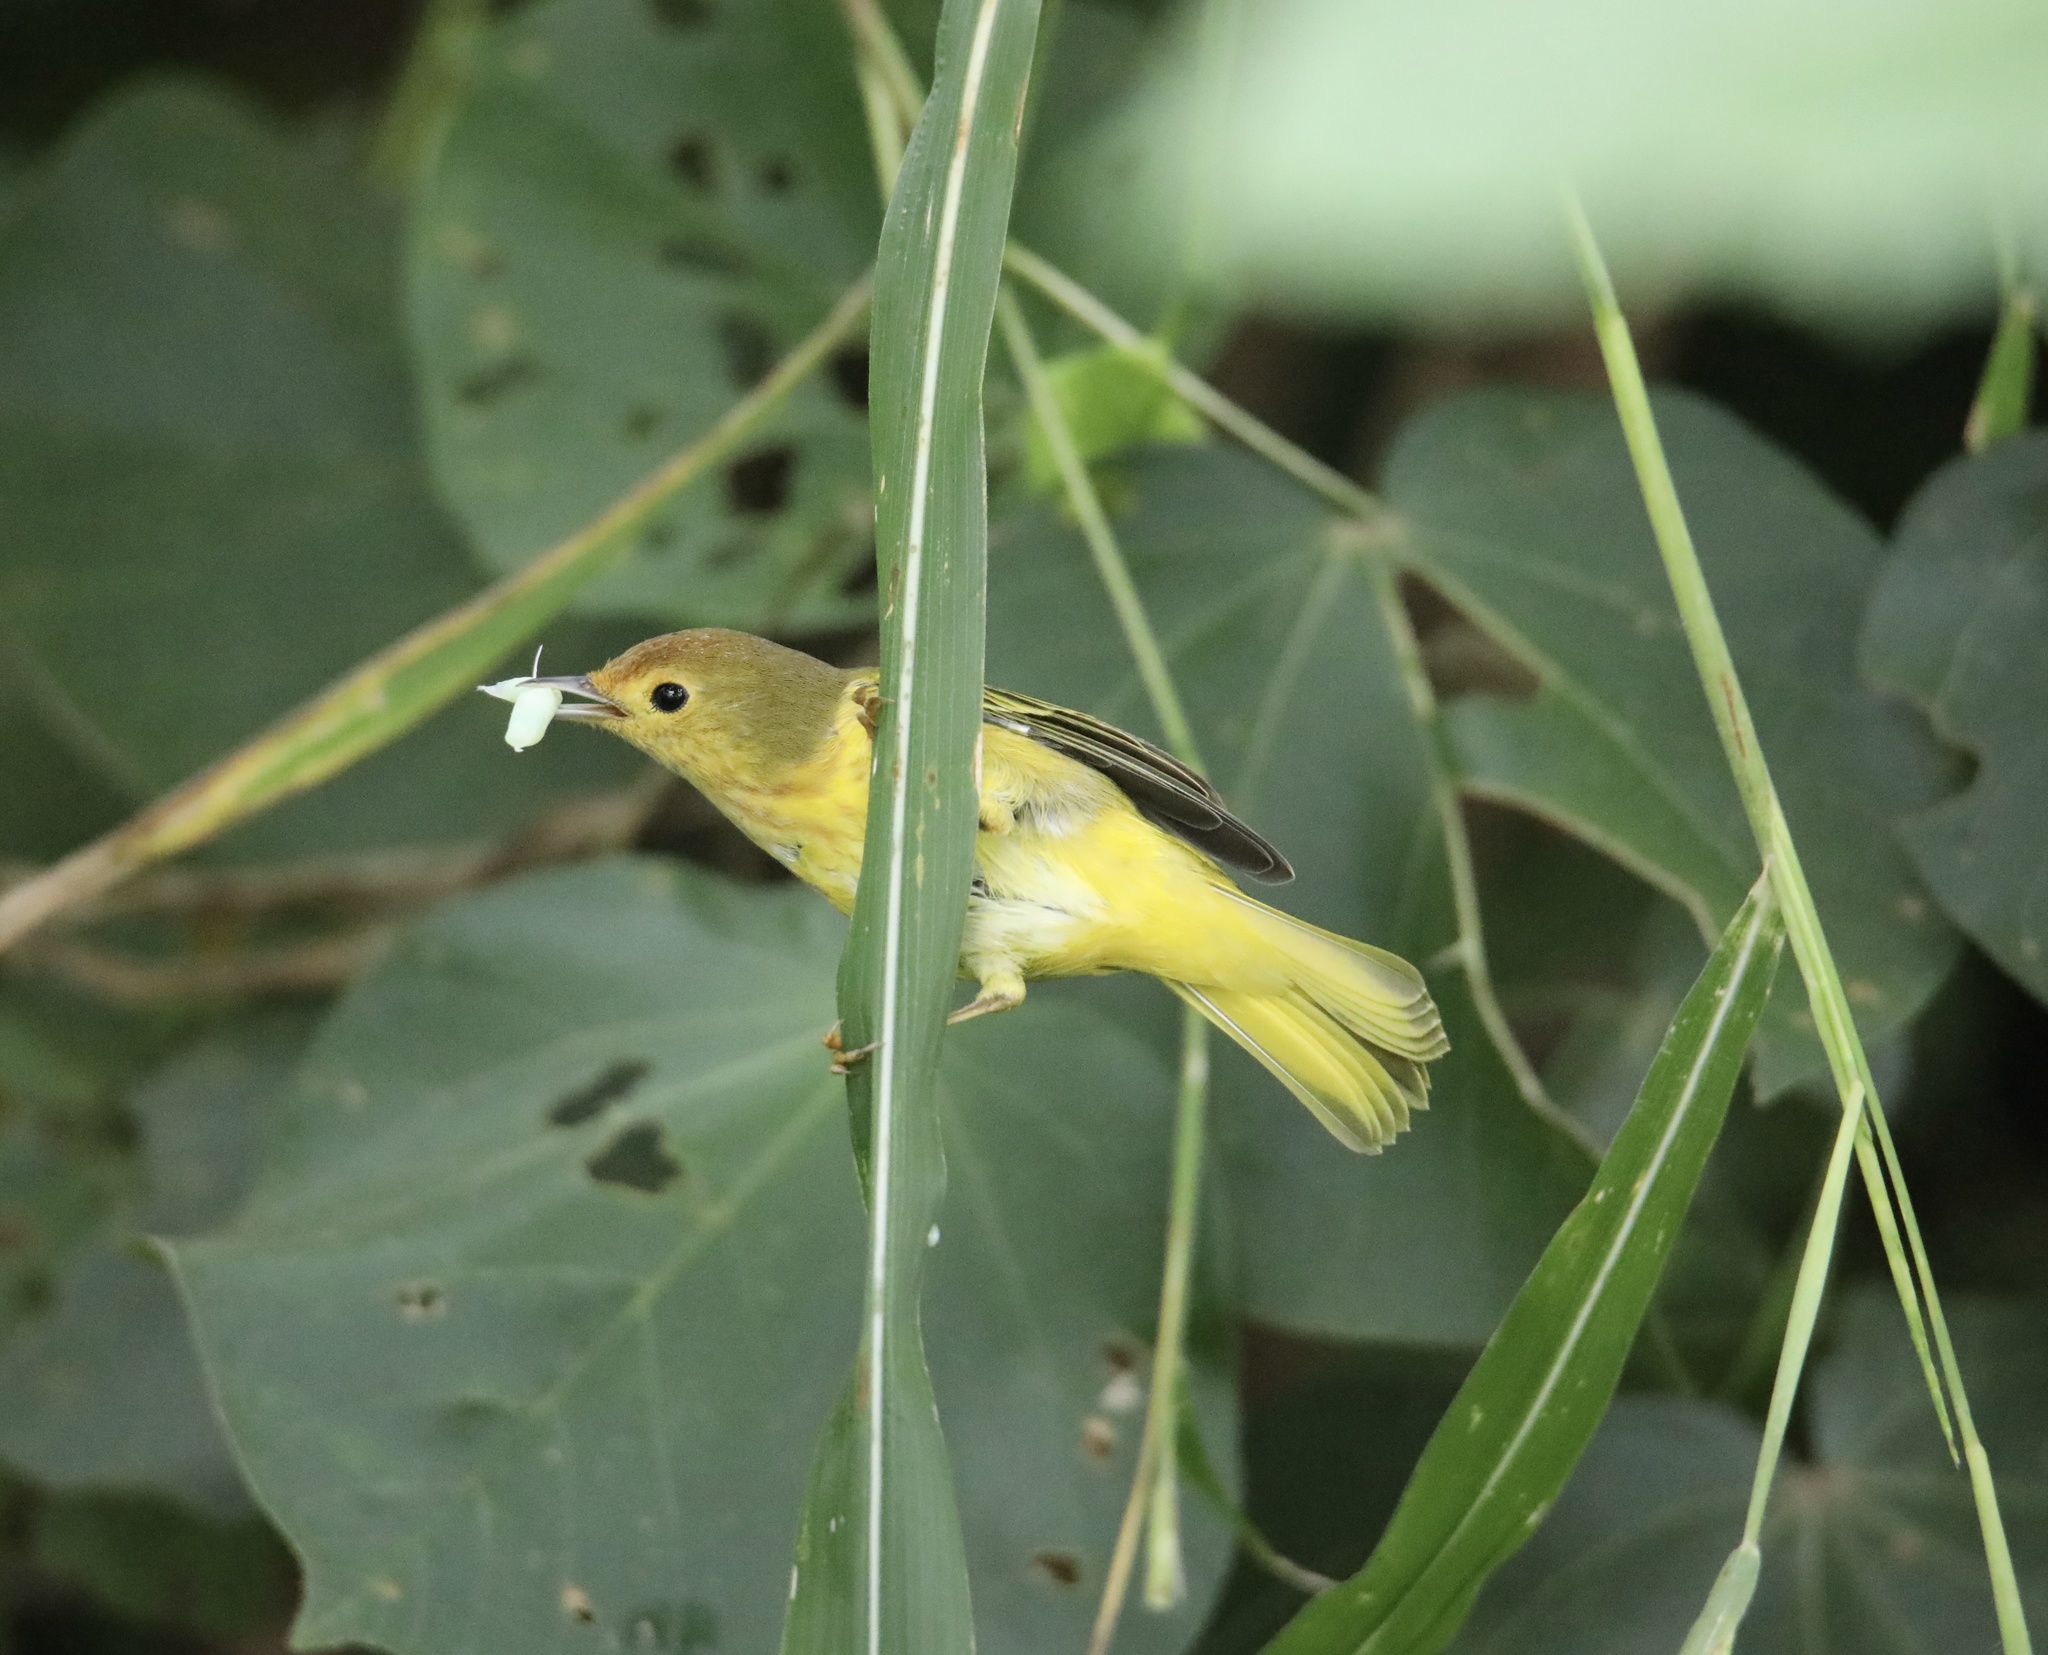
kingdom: Animalia
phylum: Chordata
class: Aves
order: Passeriformes
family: Parulidae
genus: Setophaga
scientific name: Setophaga petechia
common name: Yellow warbler
